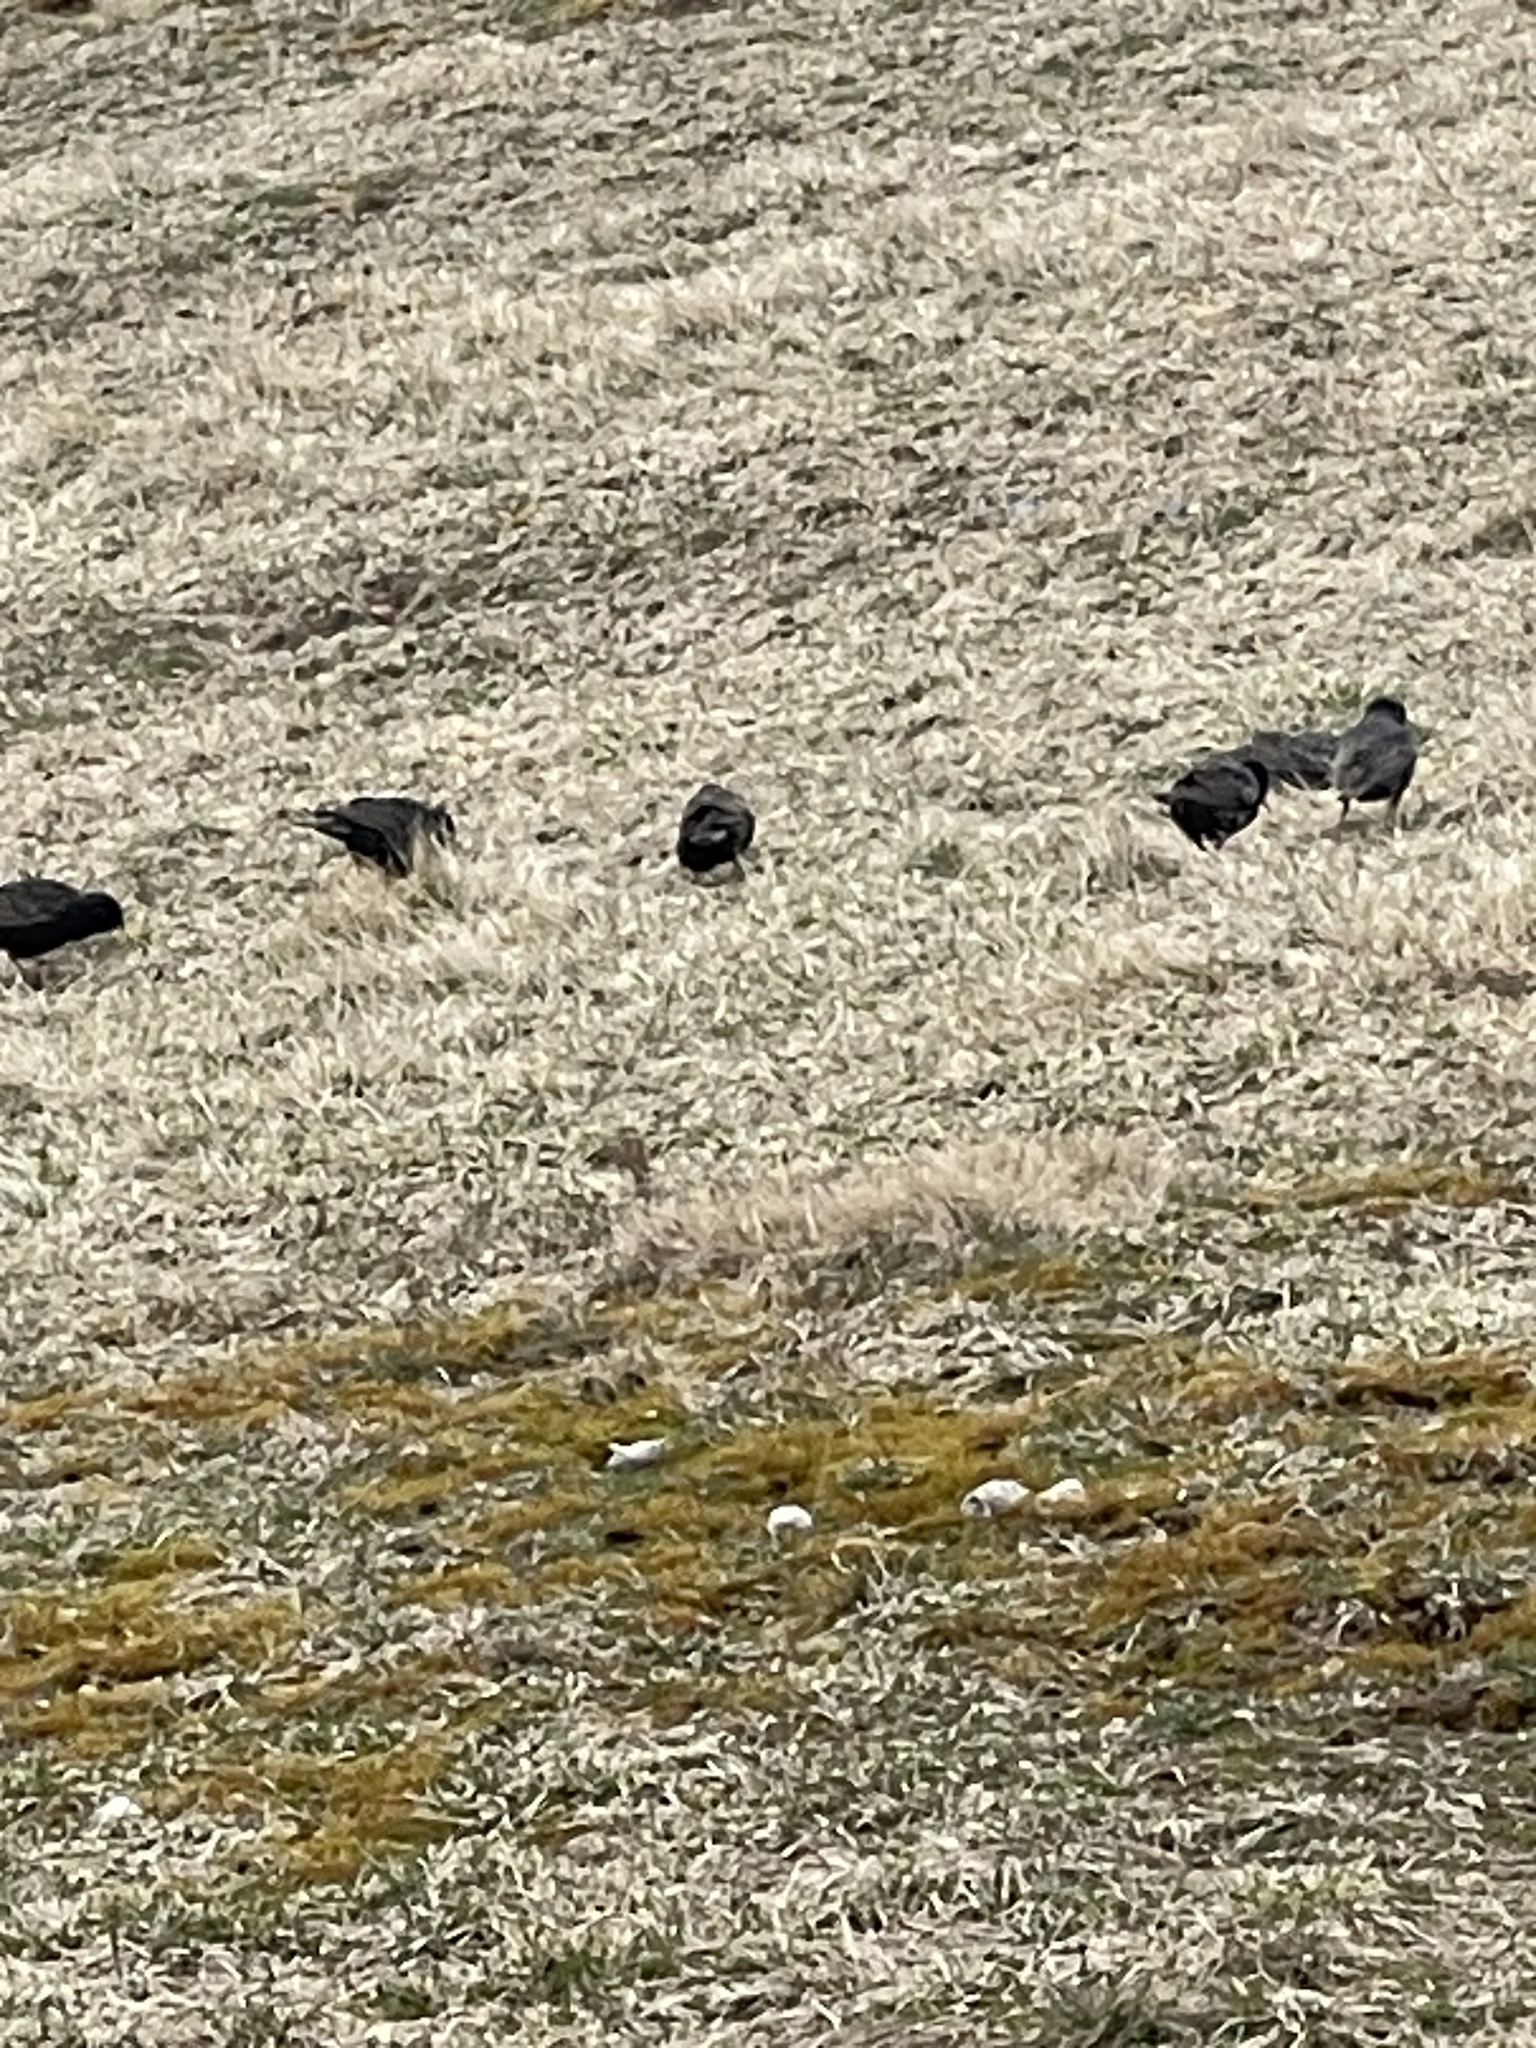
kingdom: Animalia
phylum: Chordata
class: Aves
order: Passeriformes
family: Sturnidae
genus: Sturnus
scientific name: Sturnus vulgaris
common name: Common starling
